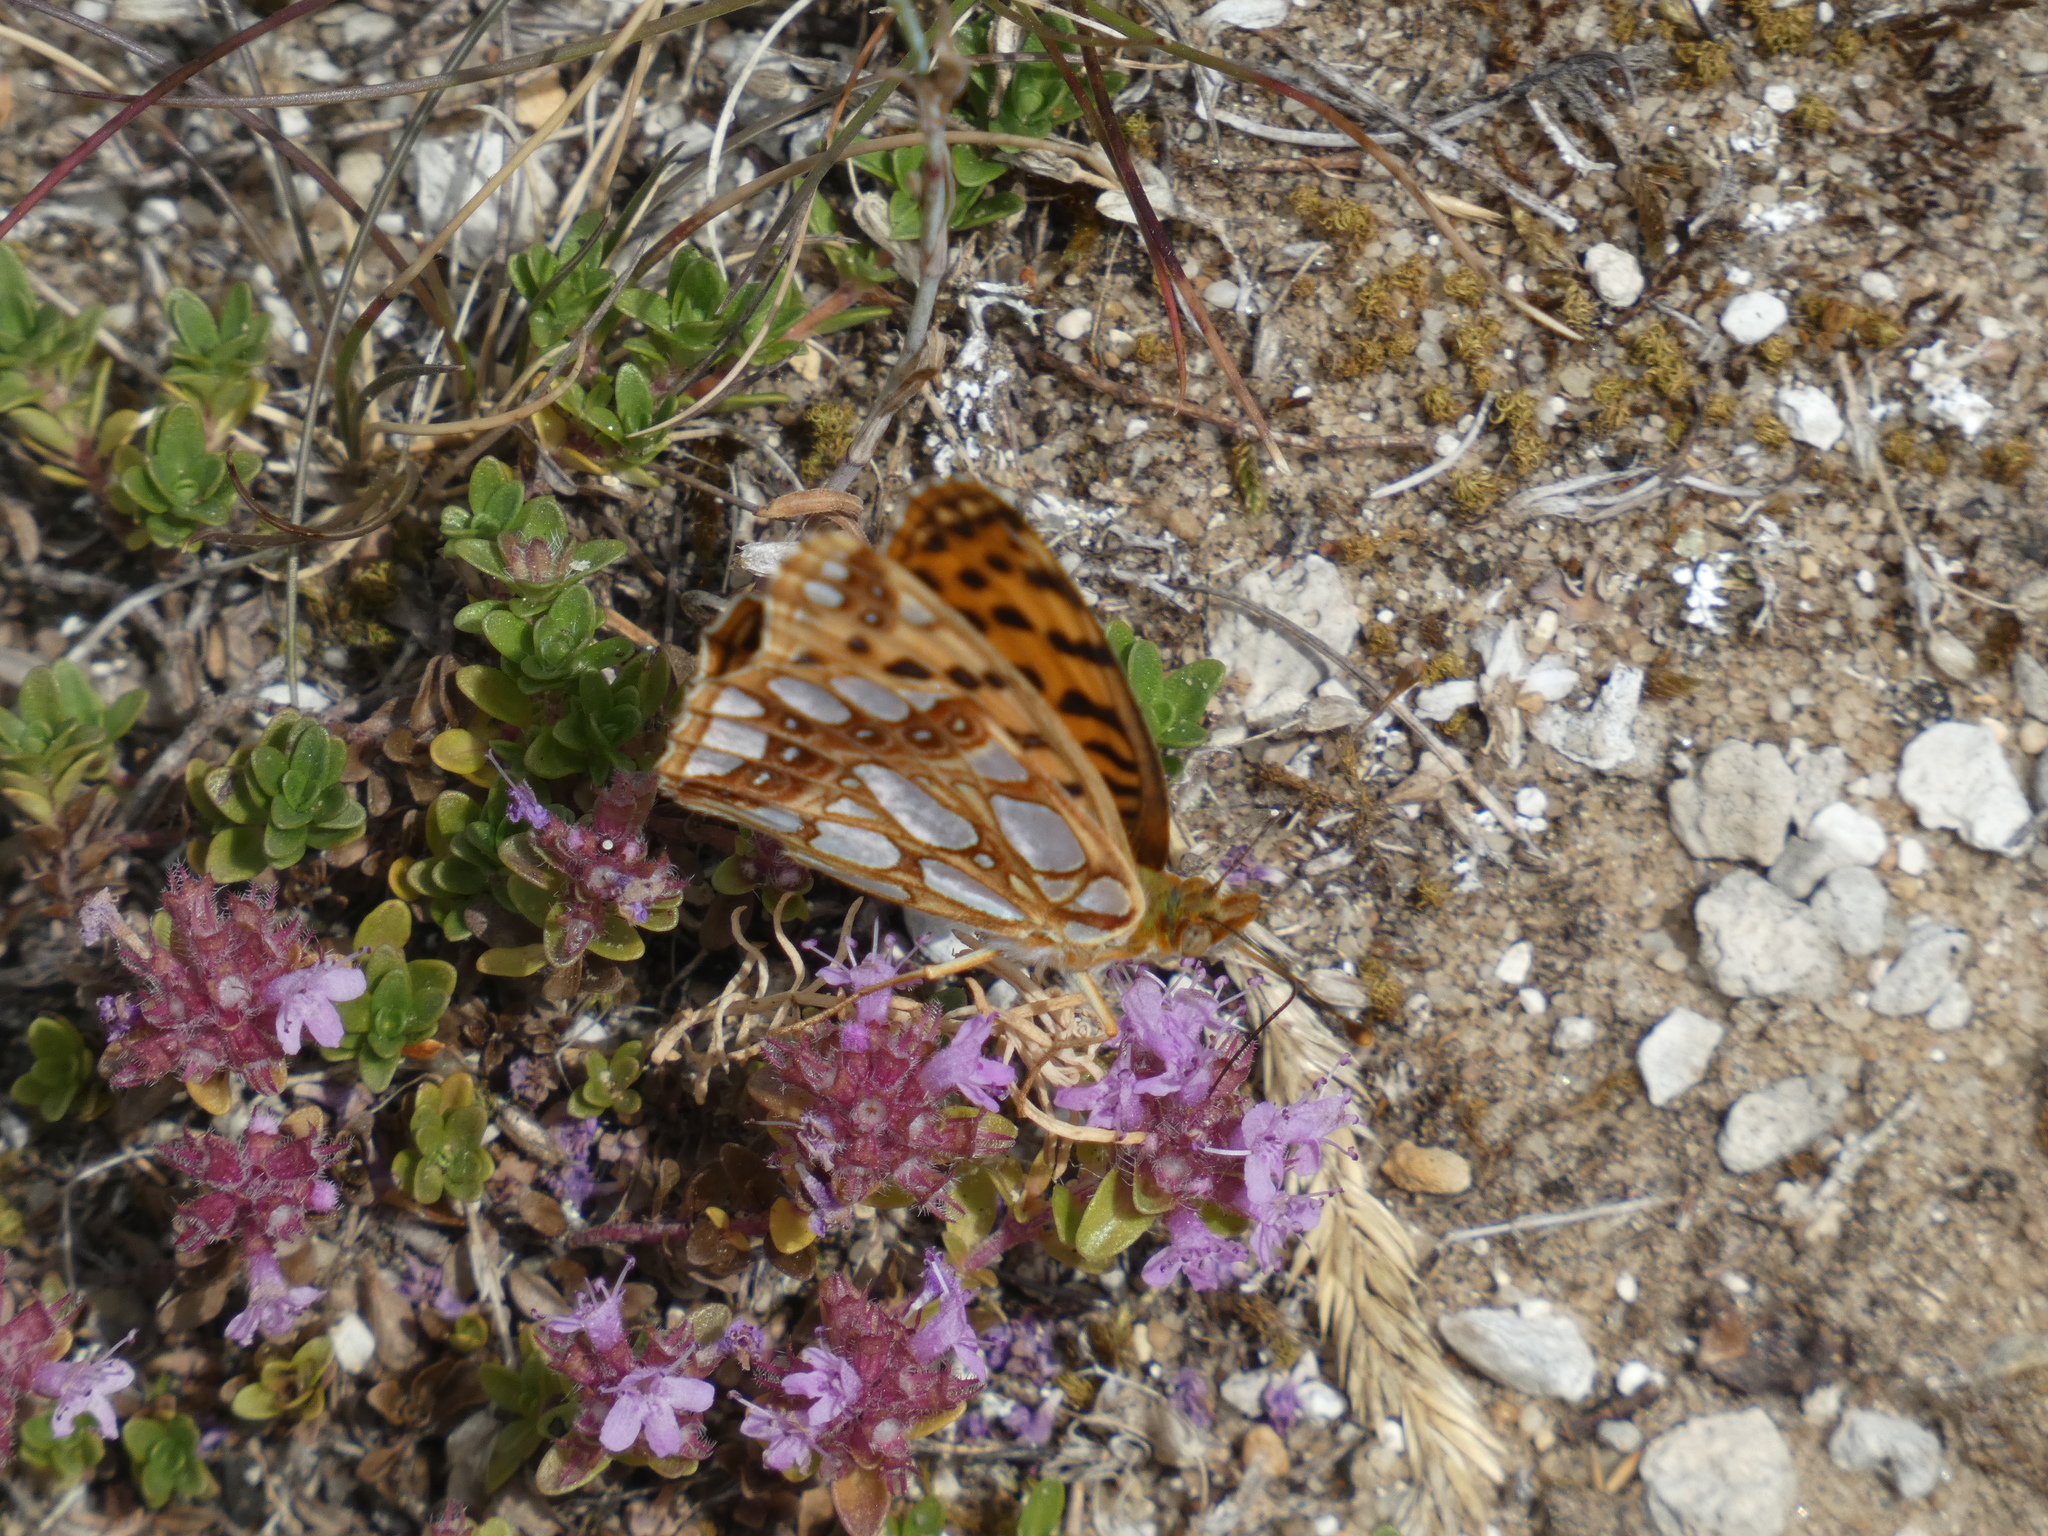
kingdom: Animalia
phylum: Arthropoda
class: Insecta
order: Lepidoptera
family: Nymphalidae
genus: Issoria
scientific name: Issoria lathonia
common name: Queen of spain fritillary
